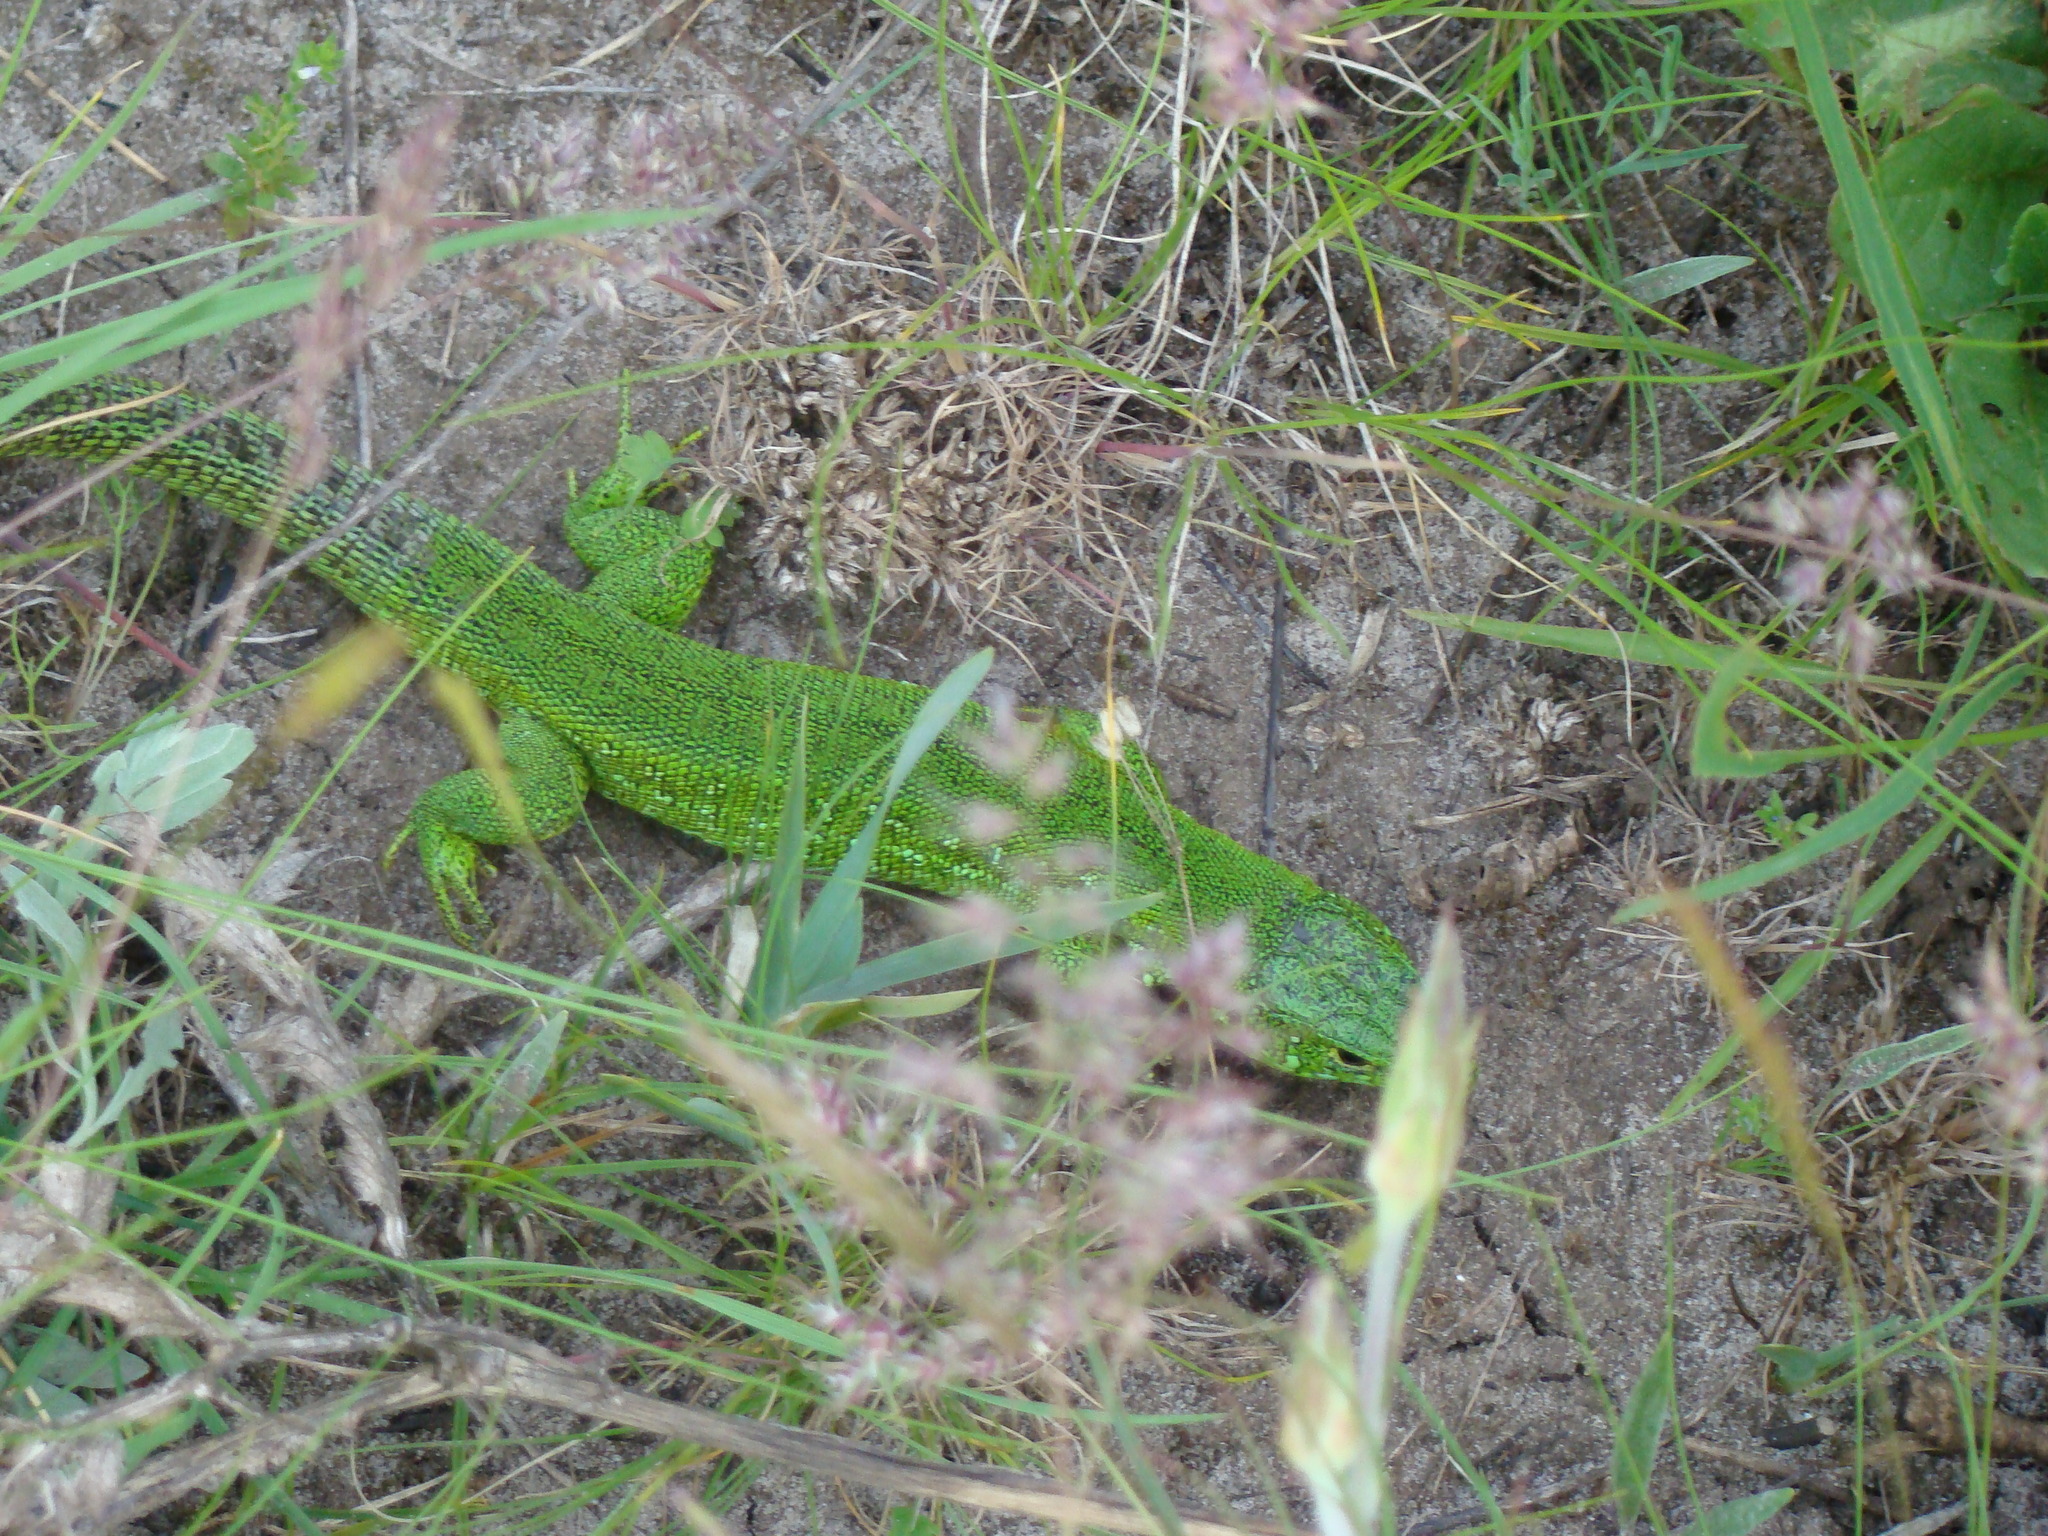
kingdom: Animalia
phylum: Chordata
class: Squamata
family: Lacertidae
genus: Lacerta
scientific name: Lacerta agilis
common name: Sand lizard
